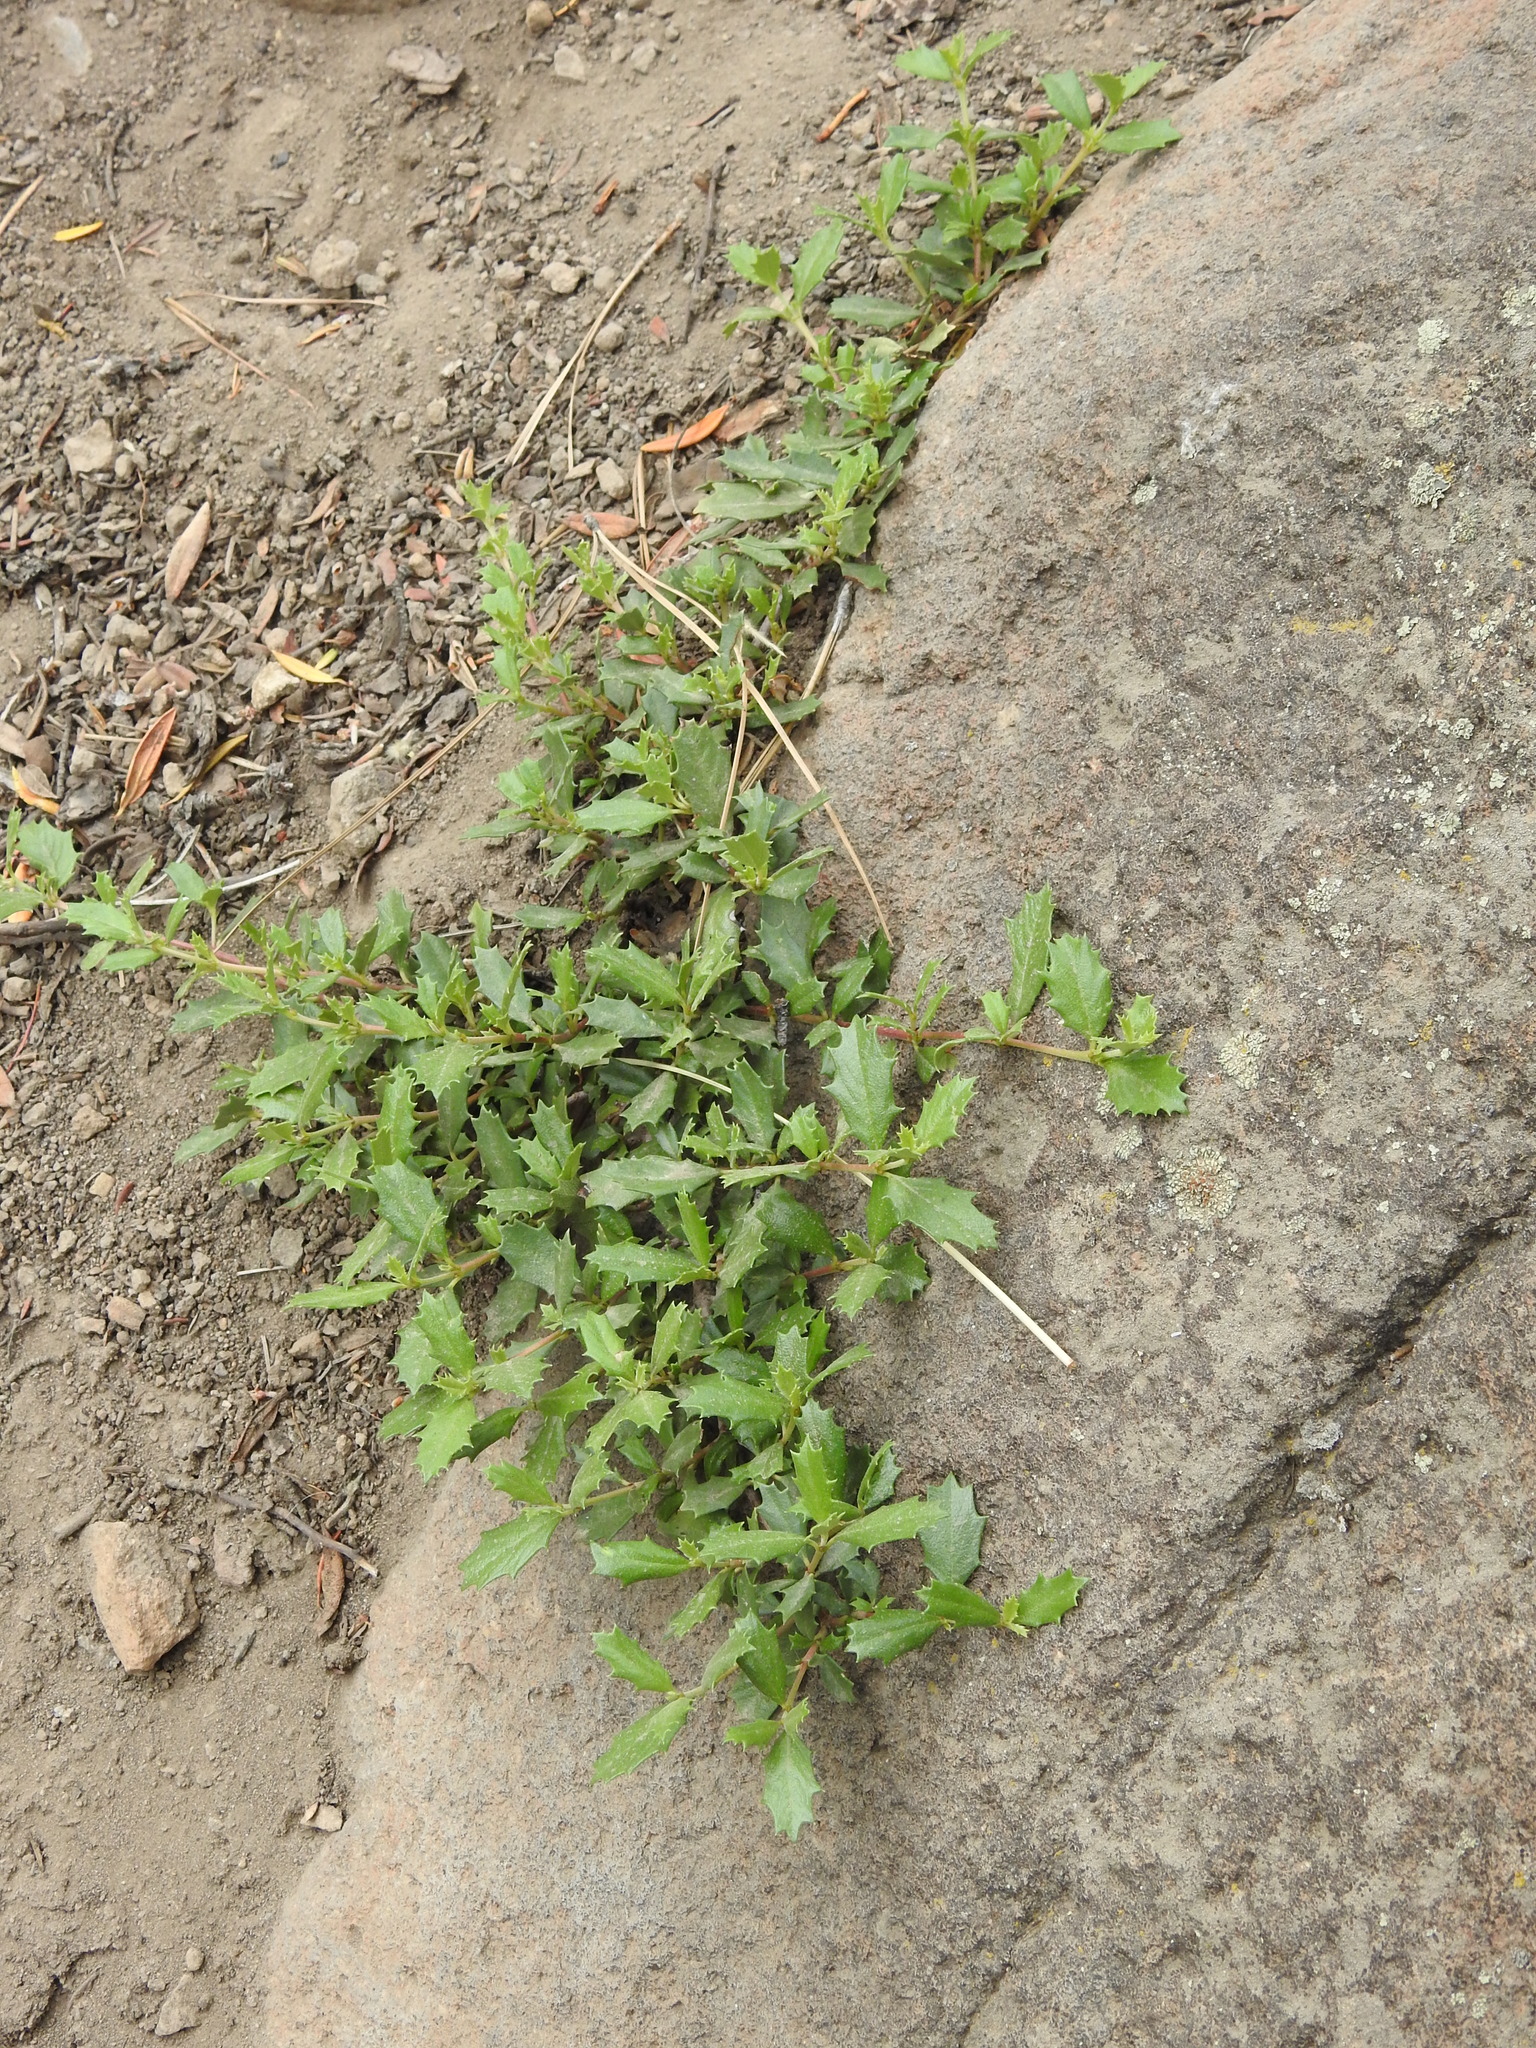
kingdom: Plantae
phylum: Tracheophyta
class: Magnoliopsida
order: Rosales
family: Rhamnaceae
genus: Ceanothus
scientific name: Ceanothus prostratus
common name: Mahala-mat
